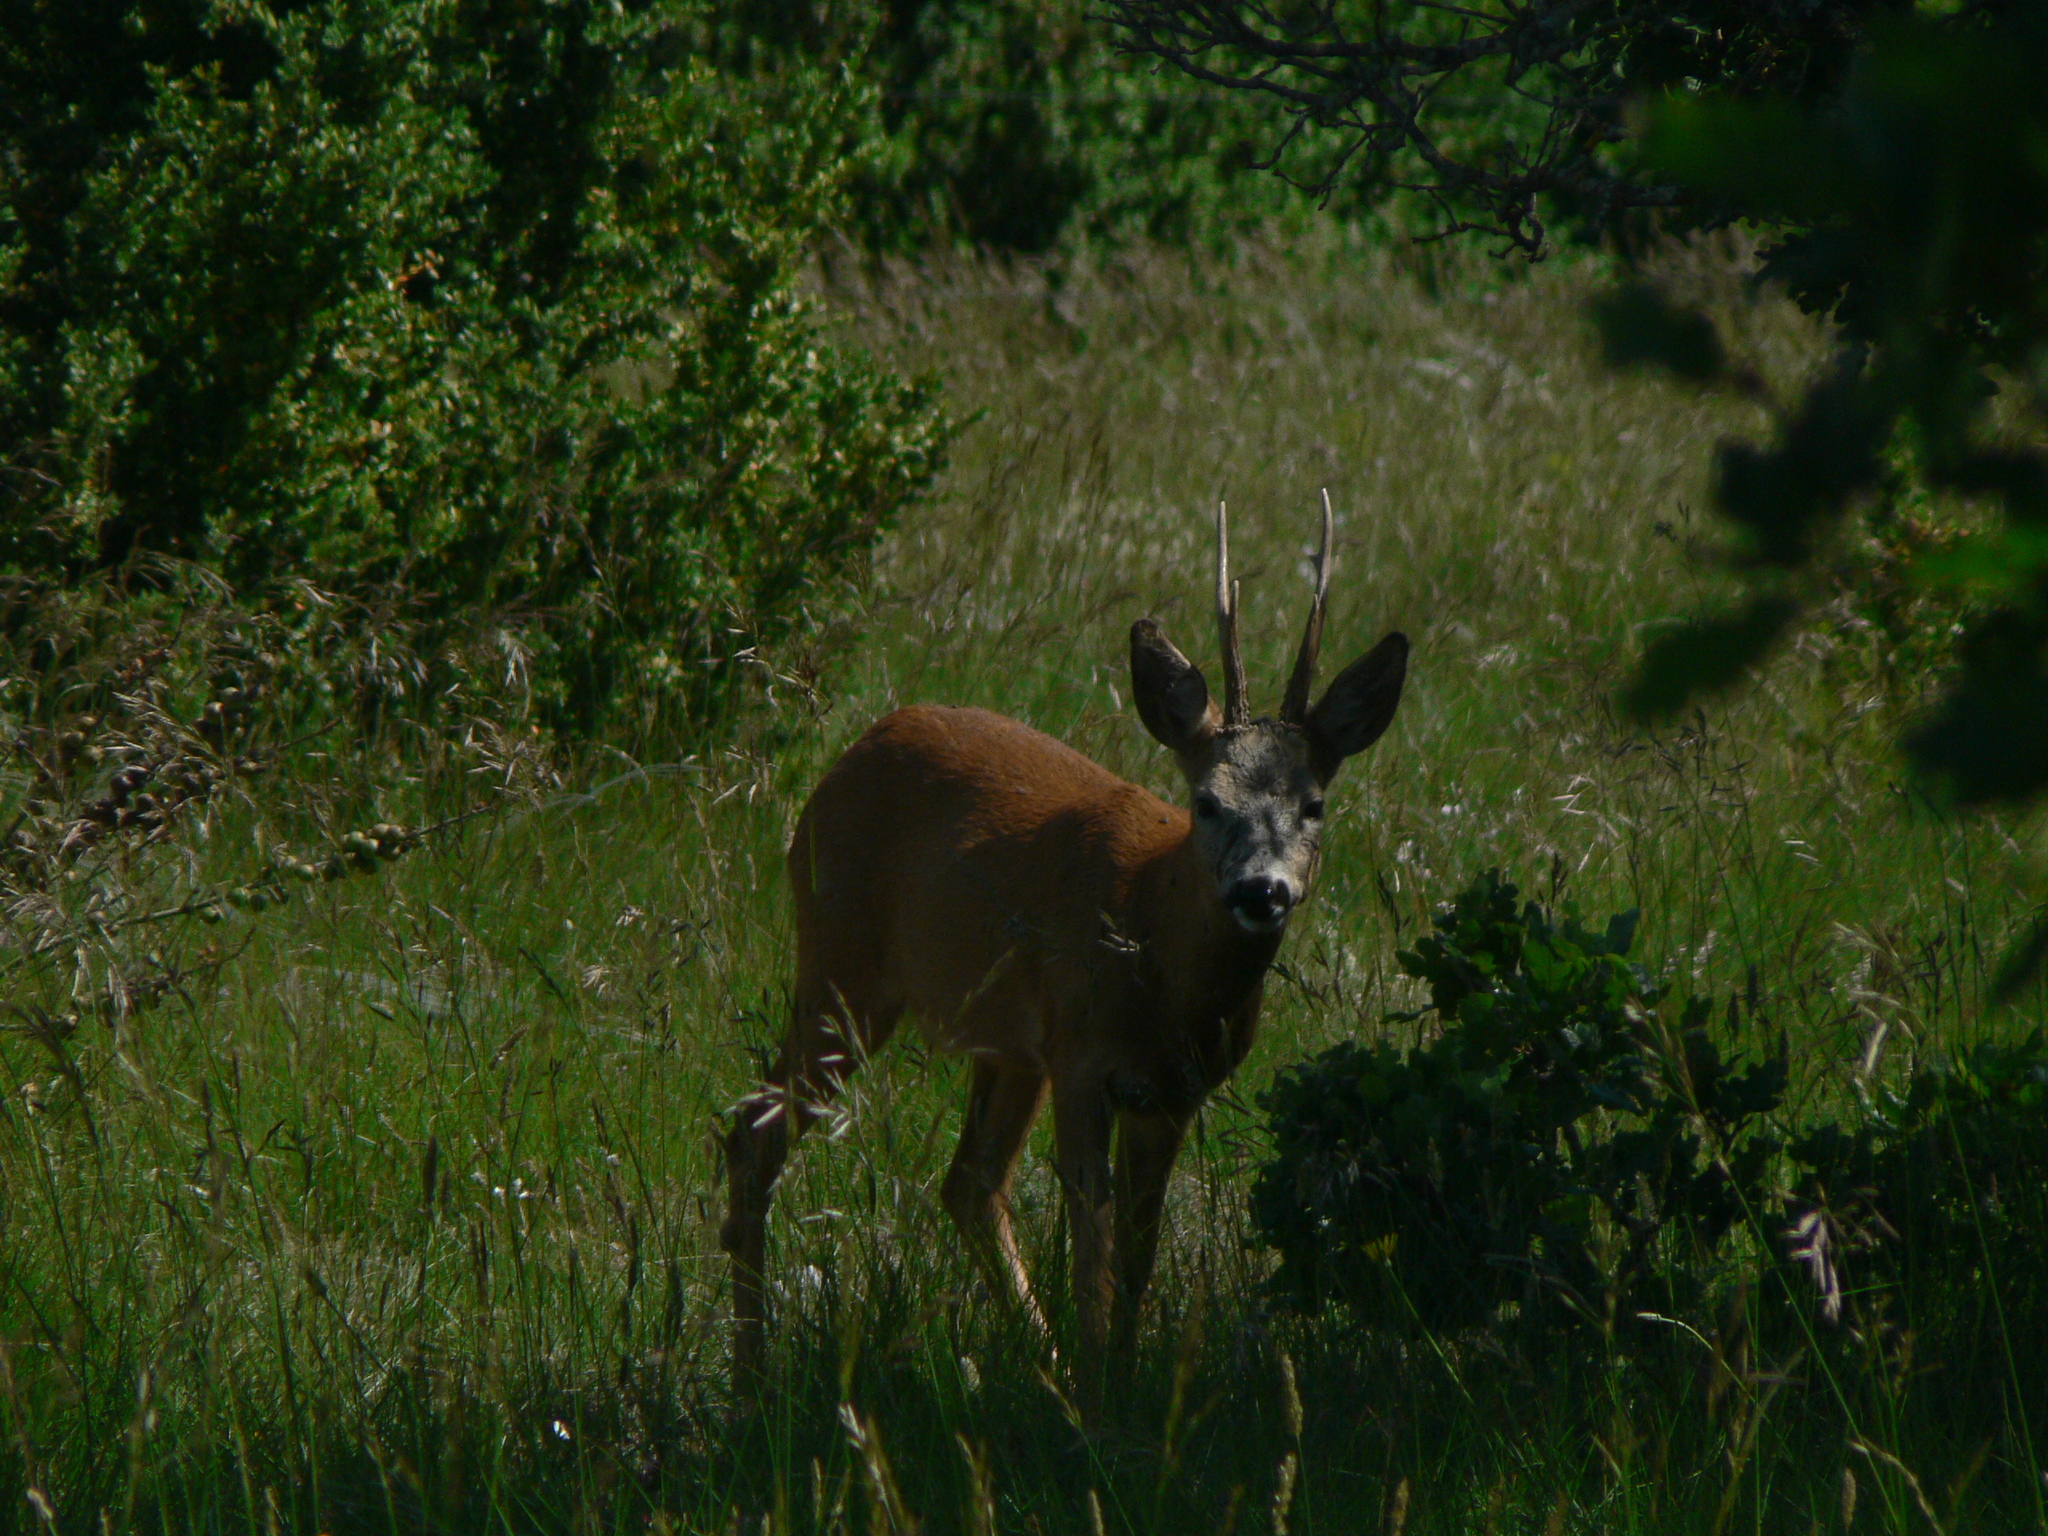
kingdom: Animalia
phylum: Chordata
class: Mammalia
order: Artiodactyla
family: Cervidae
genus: Capreolus
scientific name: Capreolus capreolus
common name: Western roe deer
